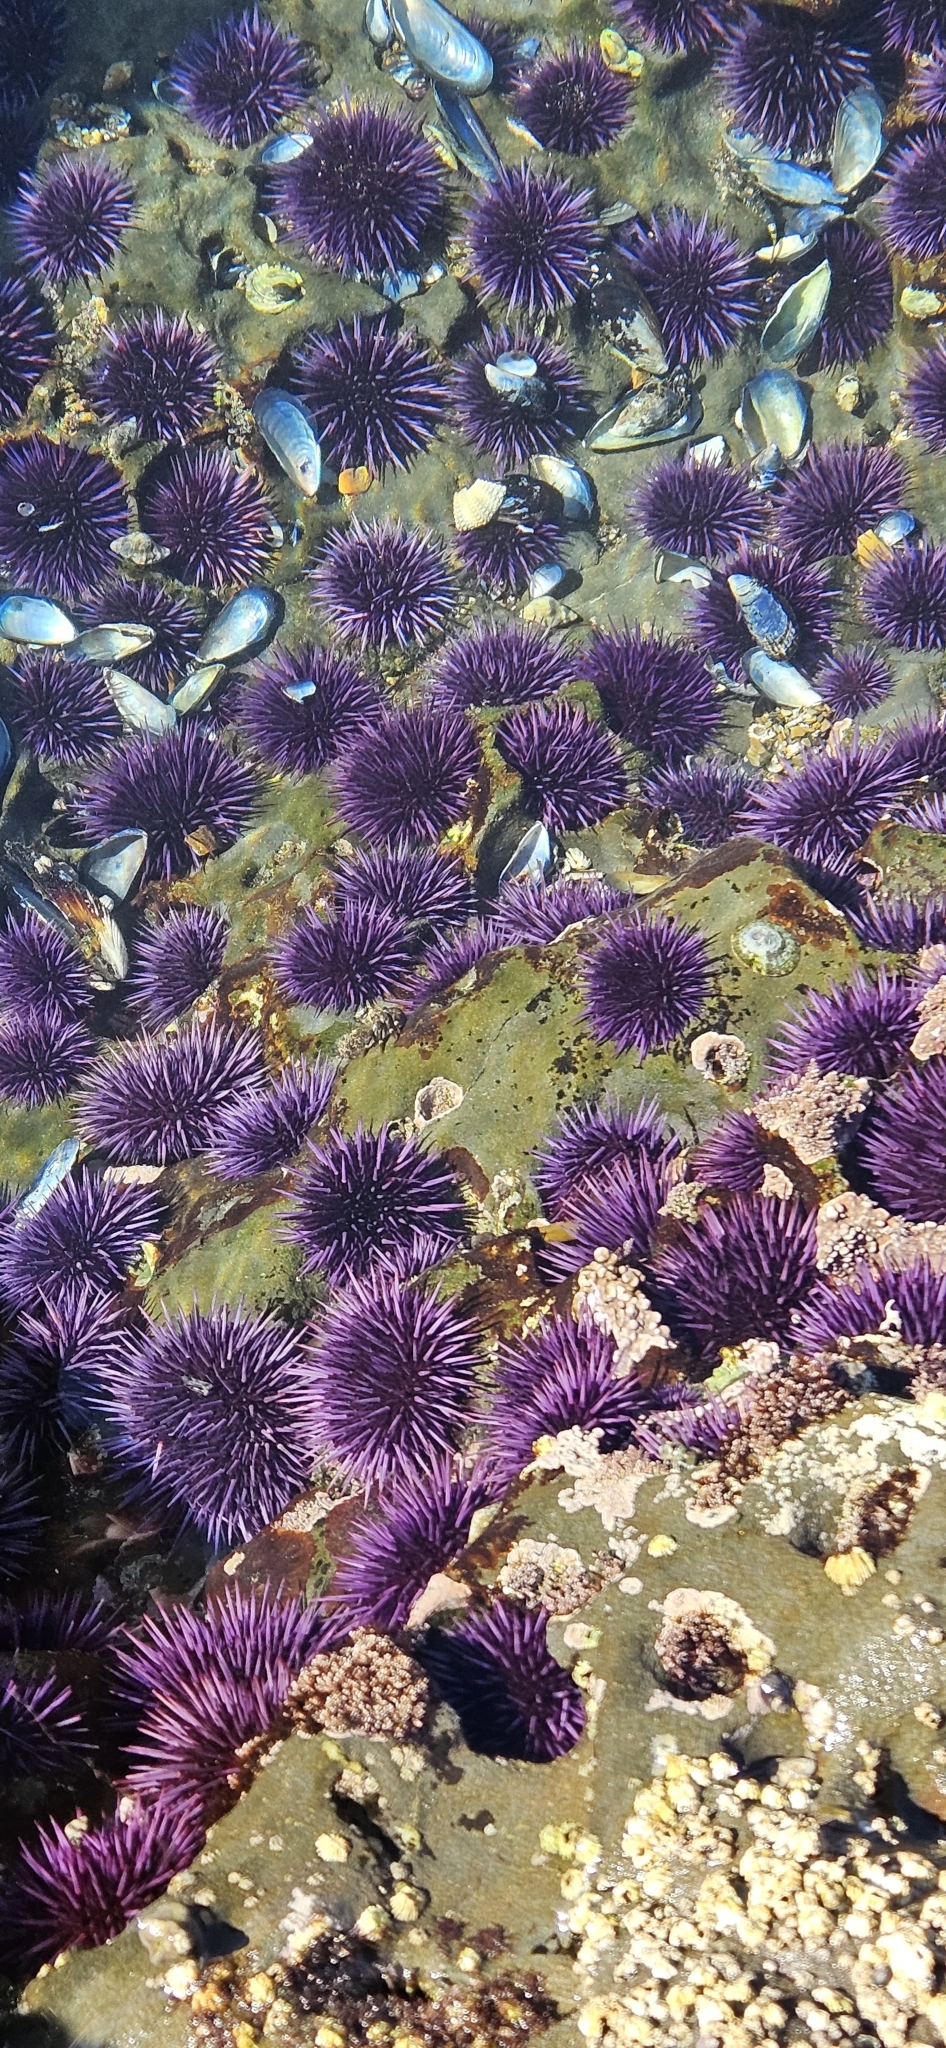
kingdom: Animalia
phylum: Echinodermata
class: Echinoidea
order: Camarodonta
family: Strongylocentrotidae
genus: Strongylocentrotus
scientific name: Strongylocentrotus purpuratus
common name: Purple sea urchin
